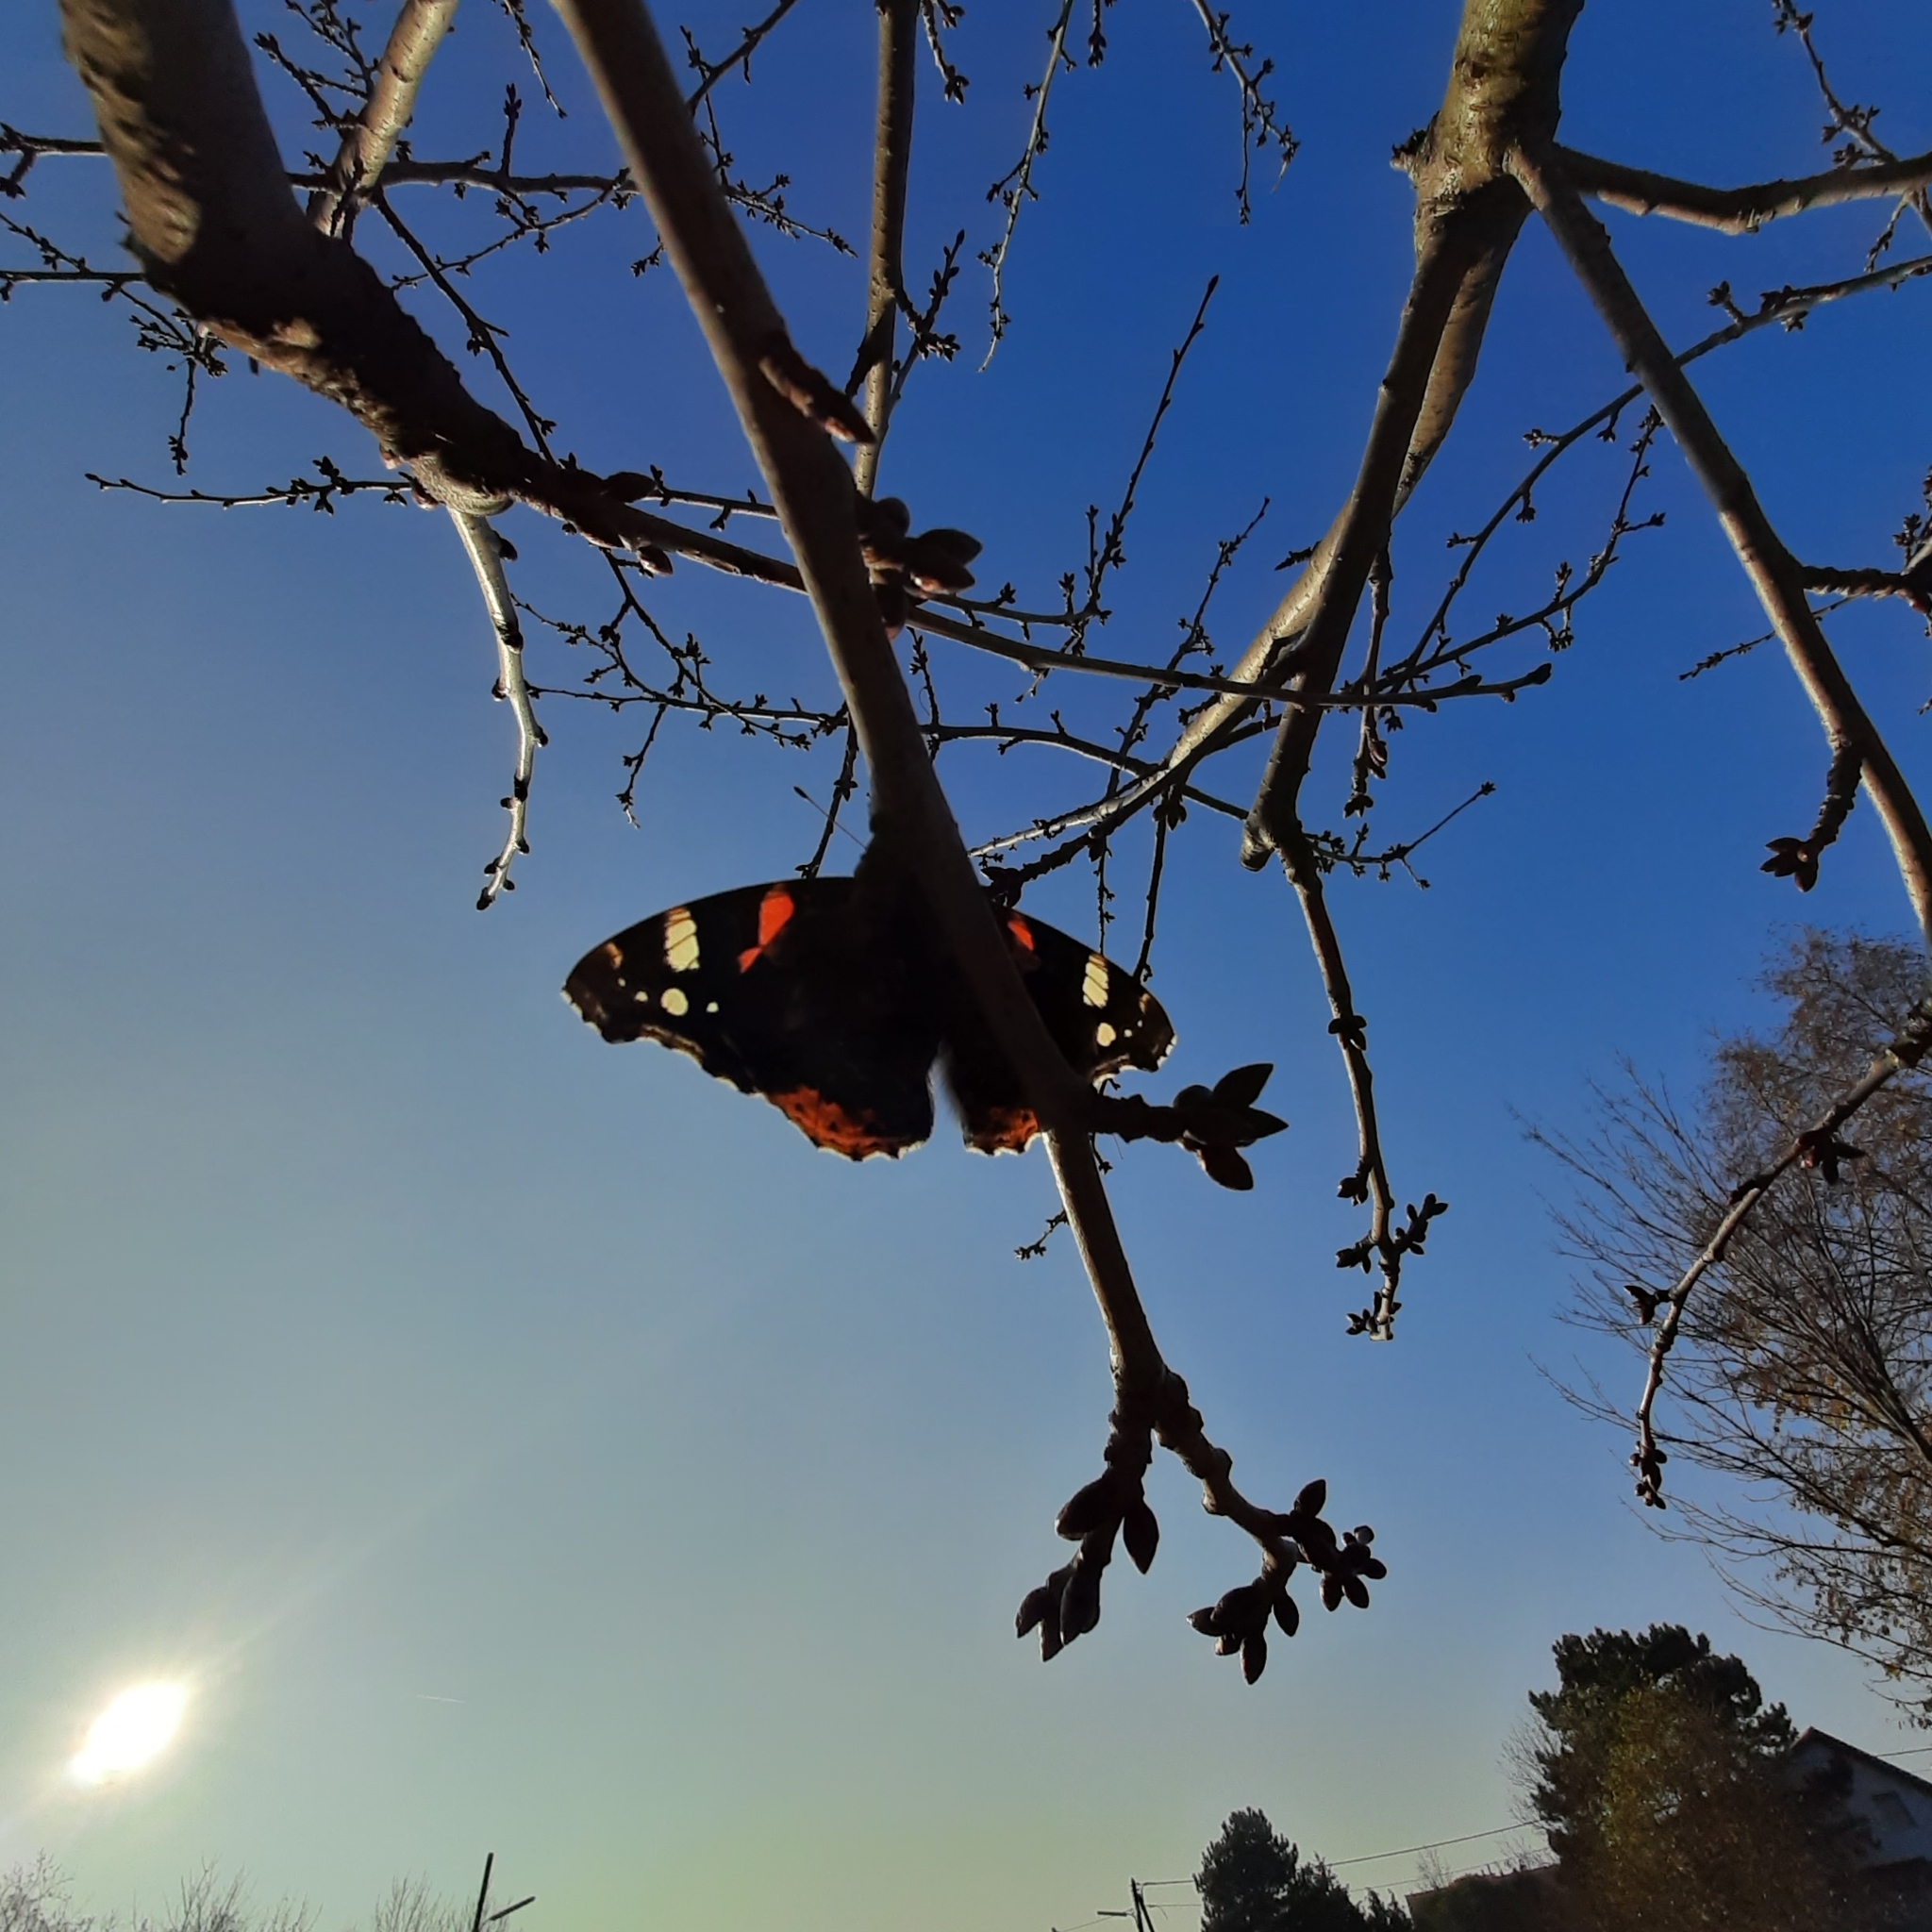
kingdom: Animalia
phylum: Arthropoda
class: Insecta
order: Lepidoptera
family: Nymphalidae
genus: Vanessa
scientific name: Vanessa atalanta
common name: Red admiral
